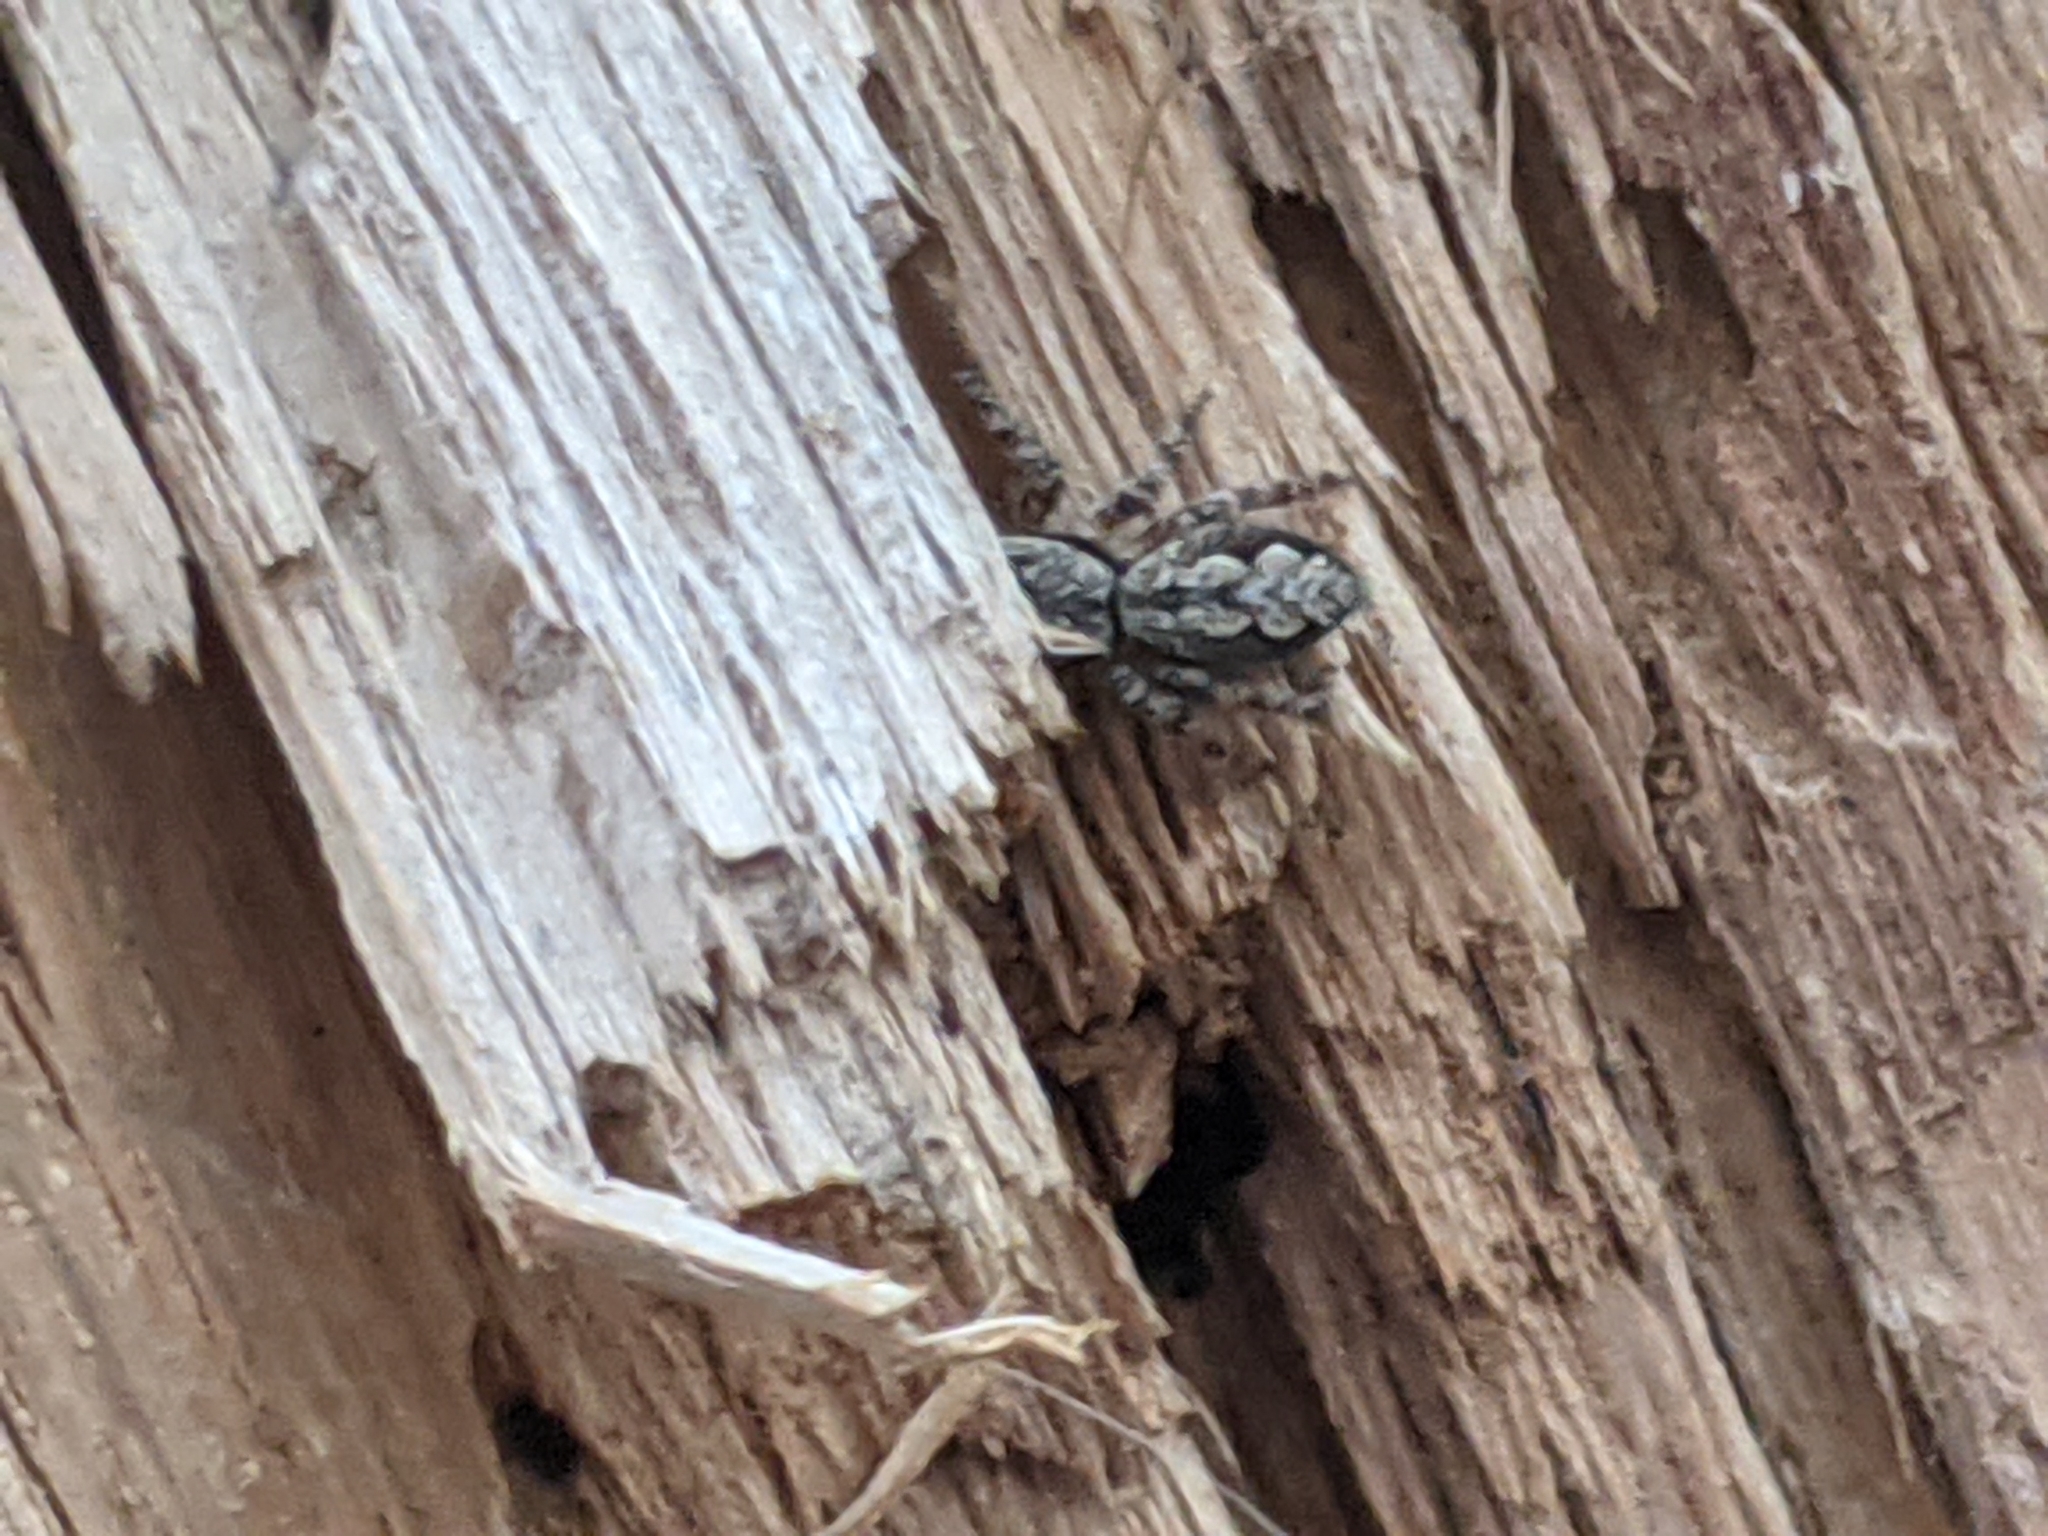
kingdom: Animalia
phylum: Arthropoda
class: Arachnida
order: Araneae
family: Salticidae
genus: Platycryptus
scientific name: Platycryptus undatus
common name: Tan jumping spider
